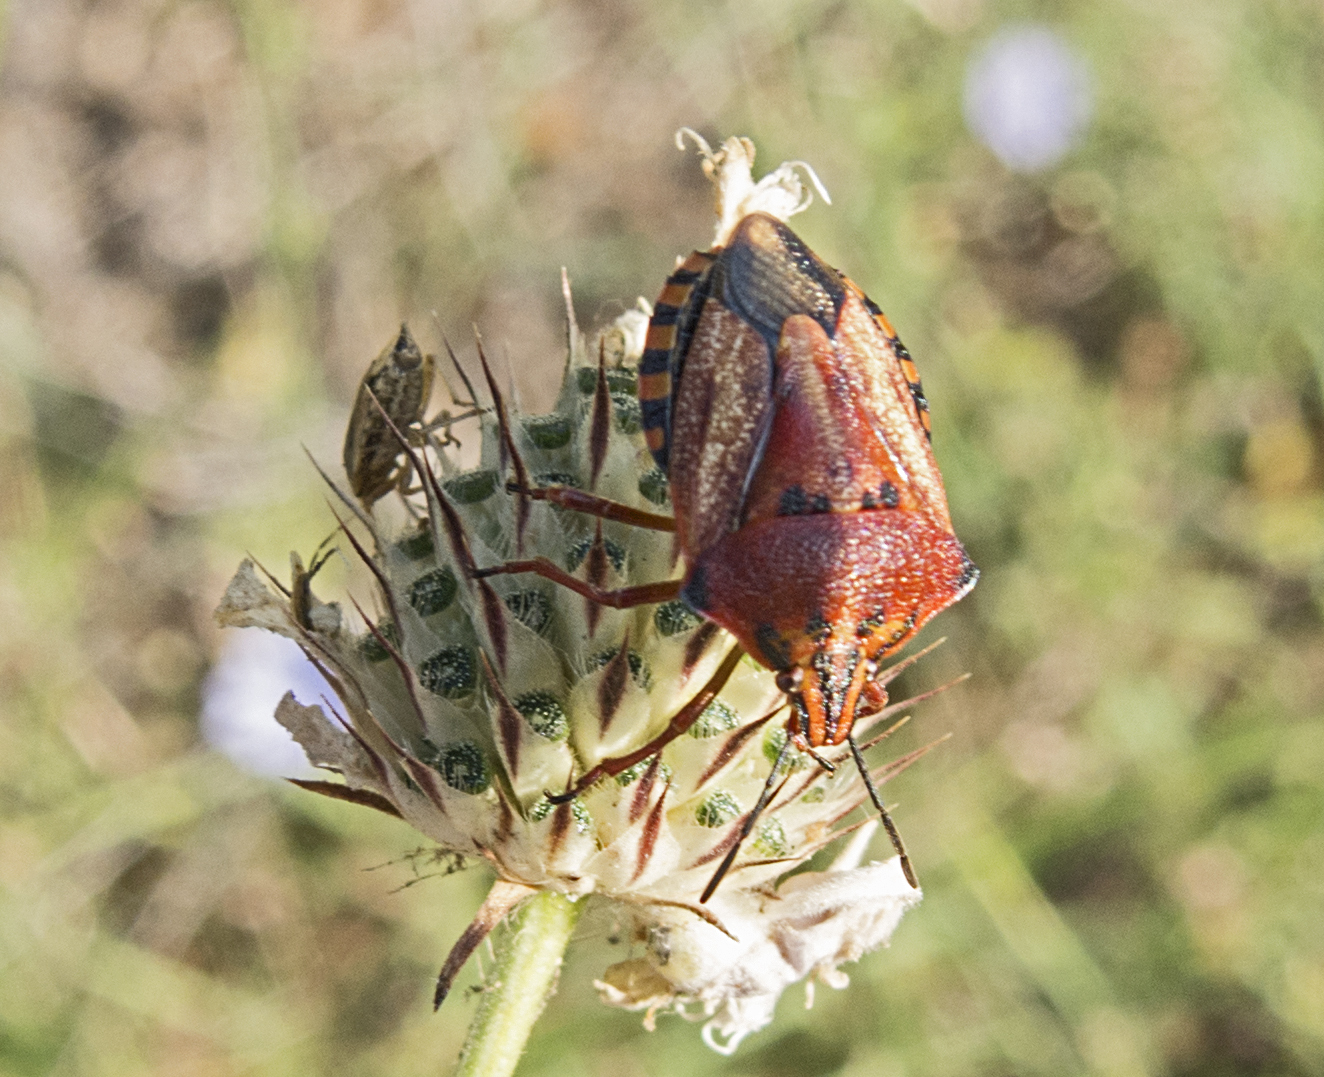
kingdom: Animalia
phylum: Arthropoda
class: Insecta
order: Hemiptera
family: Pentatomidae
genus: Carpocoris
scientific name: Carpocoris mediterraneus
